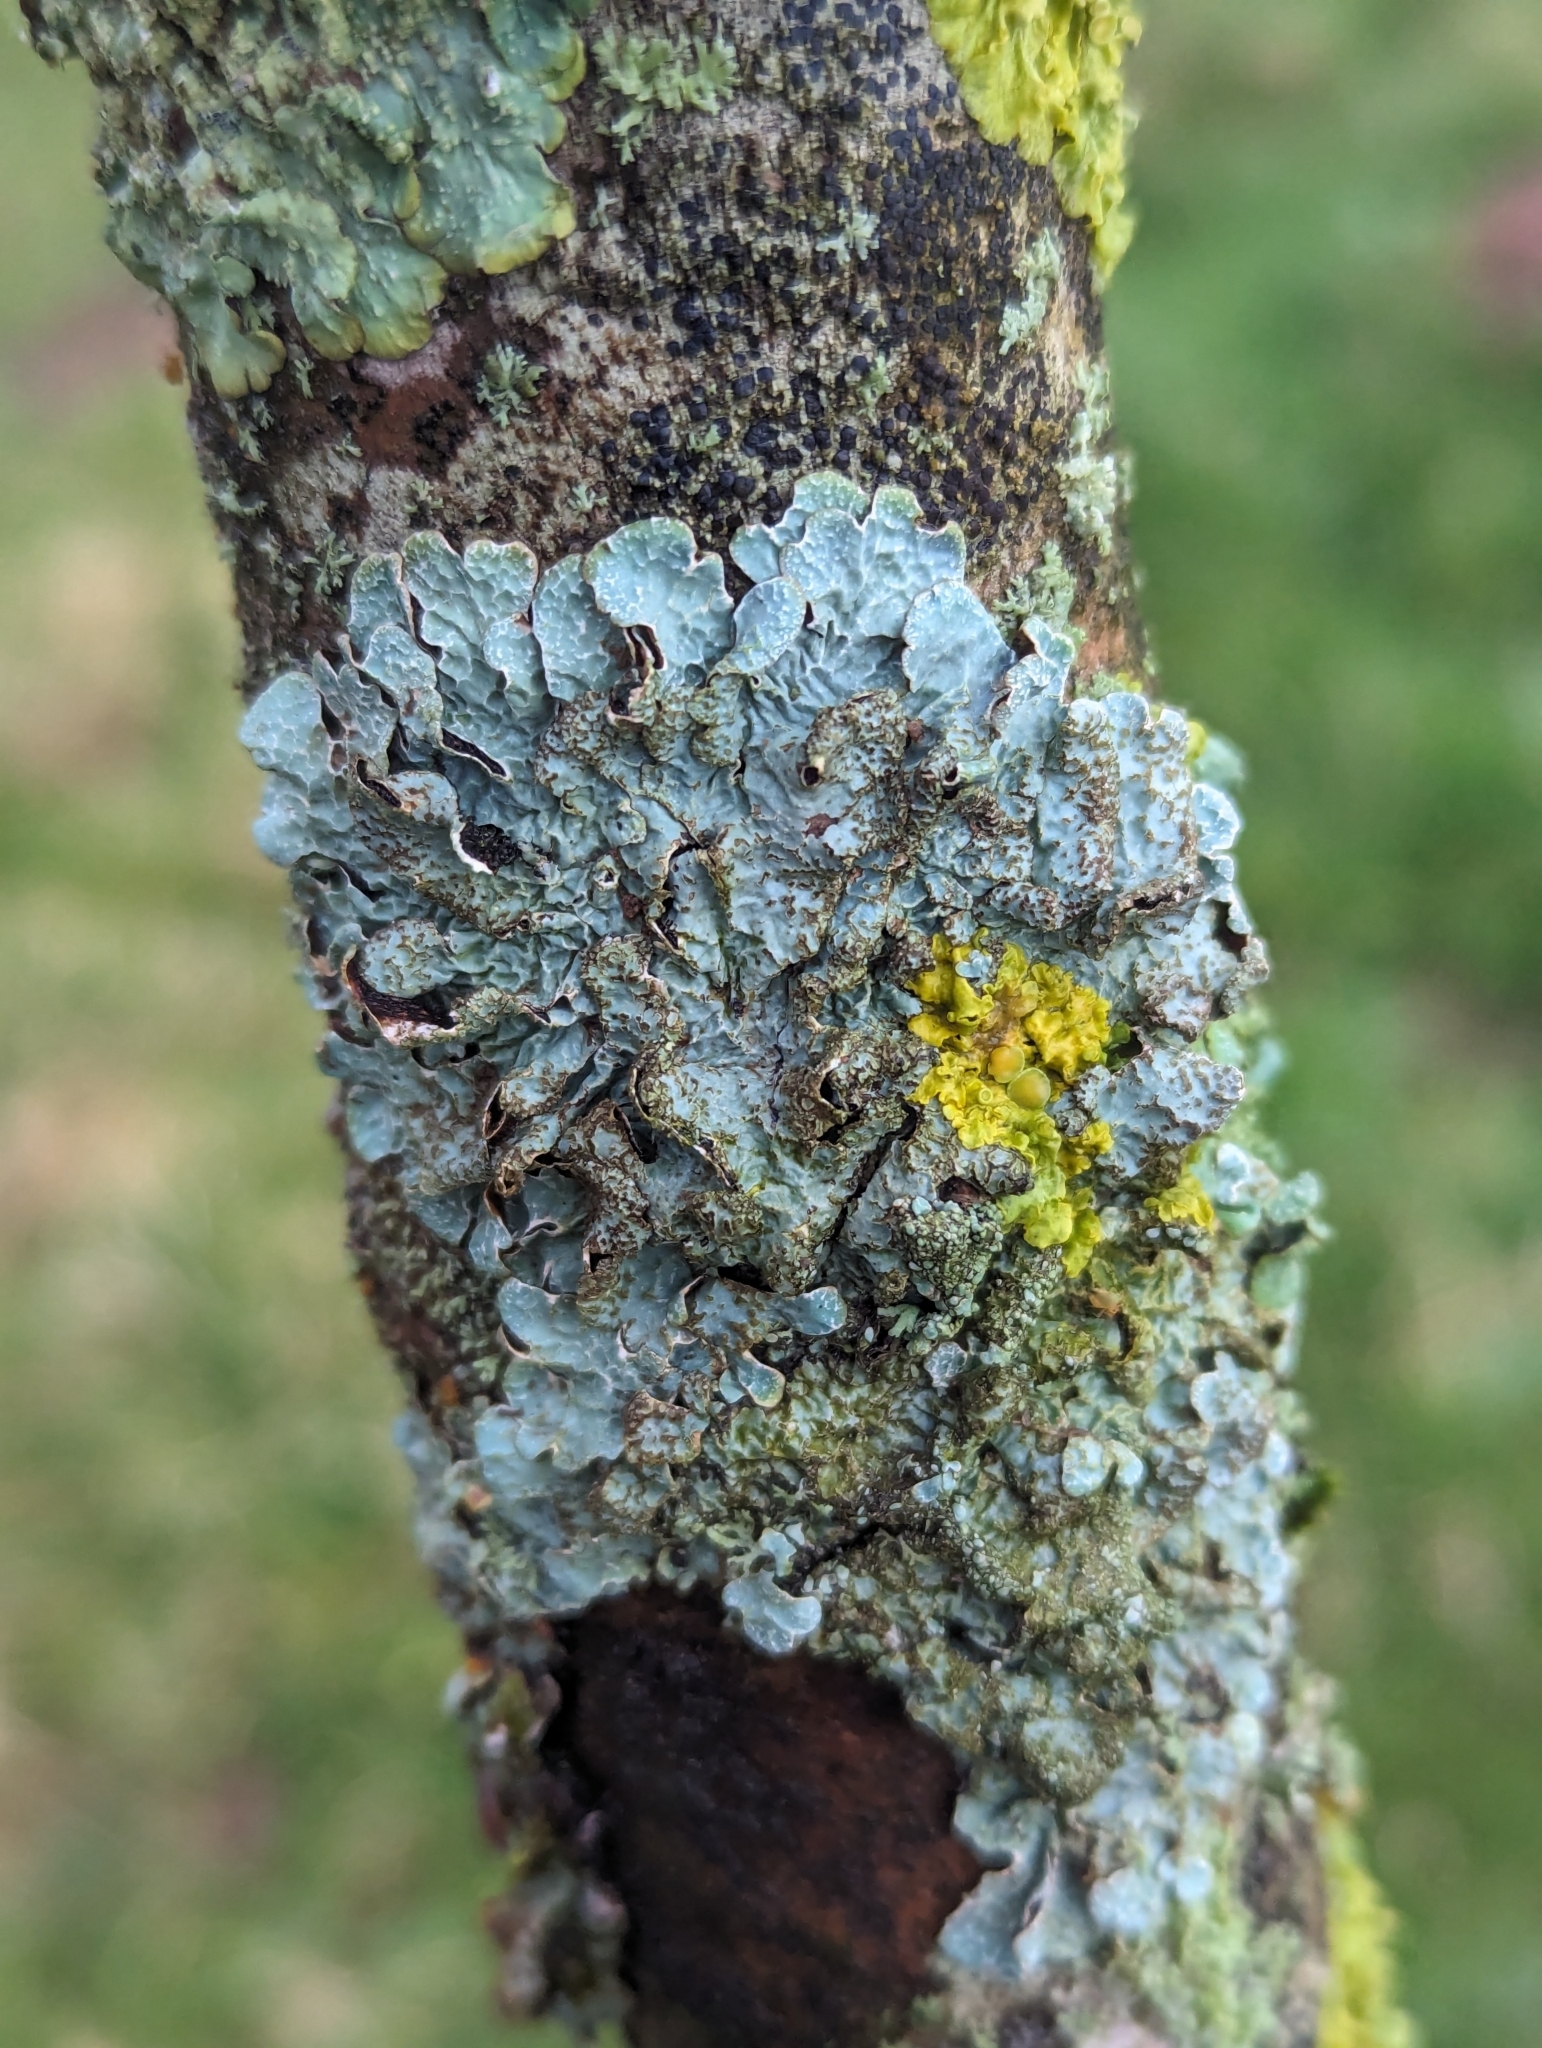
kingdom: Fungi
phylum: Ascomycota
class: Lecanoromycetes
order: Lecanorales
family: Parmeliaceae
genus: Parmelia
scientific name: Parmelia sulcata
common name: Netted shield lichen
